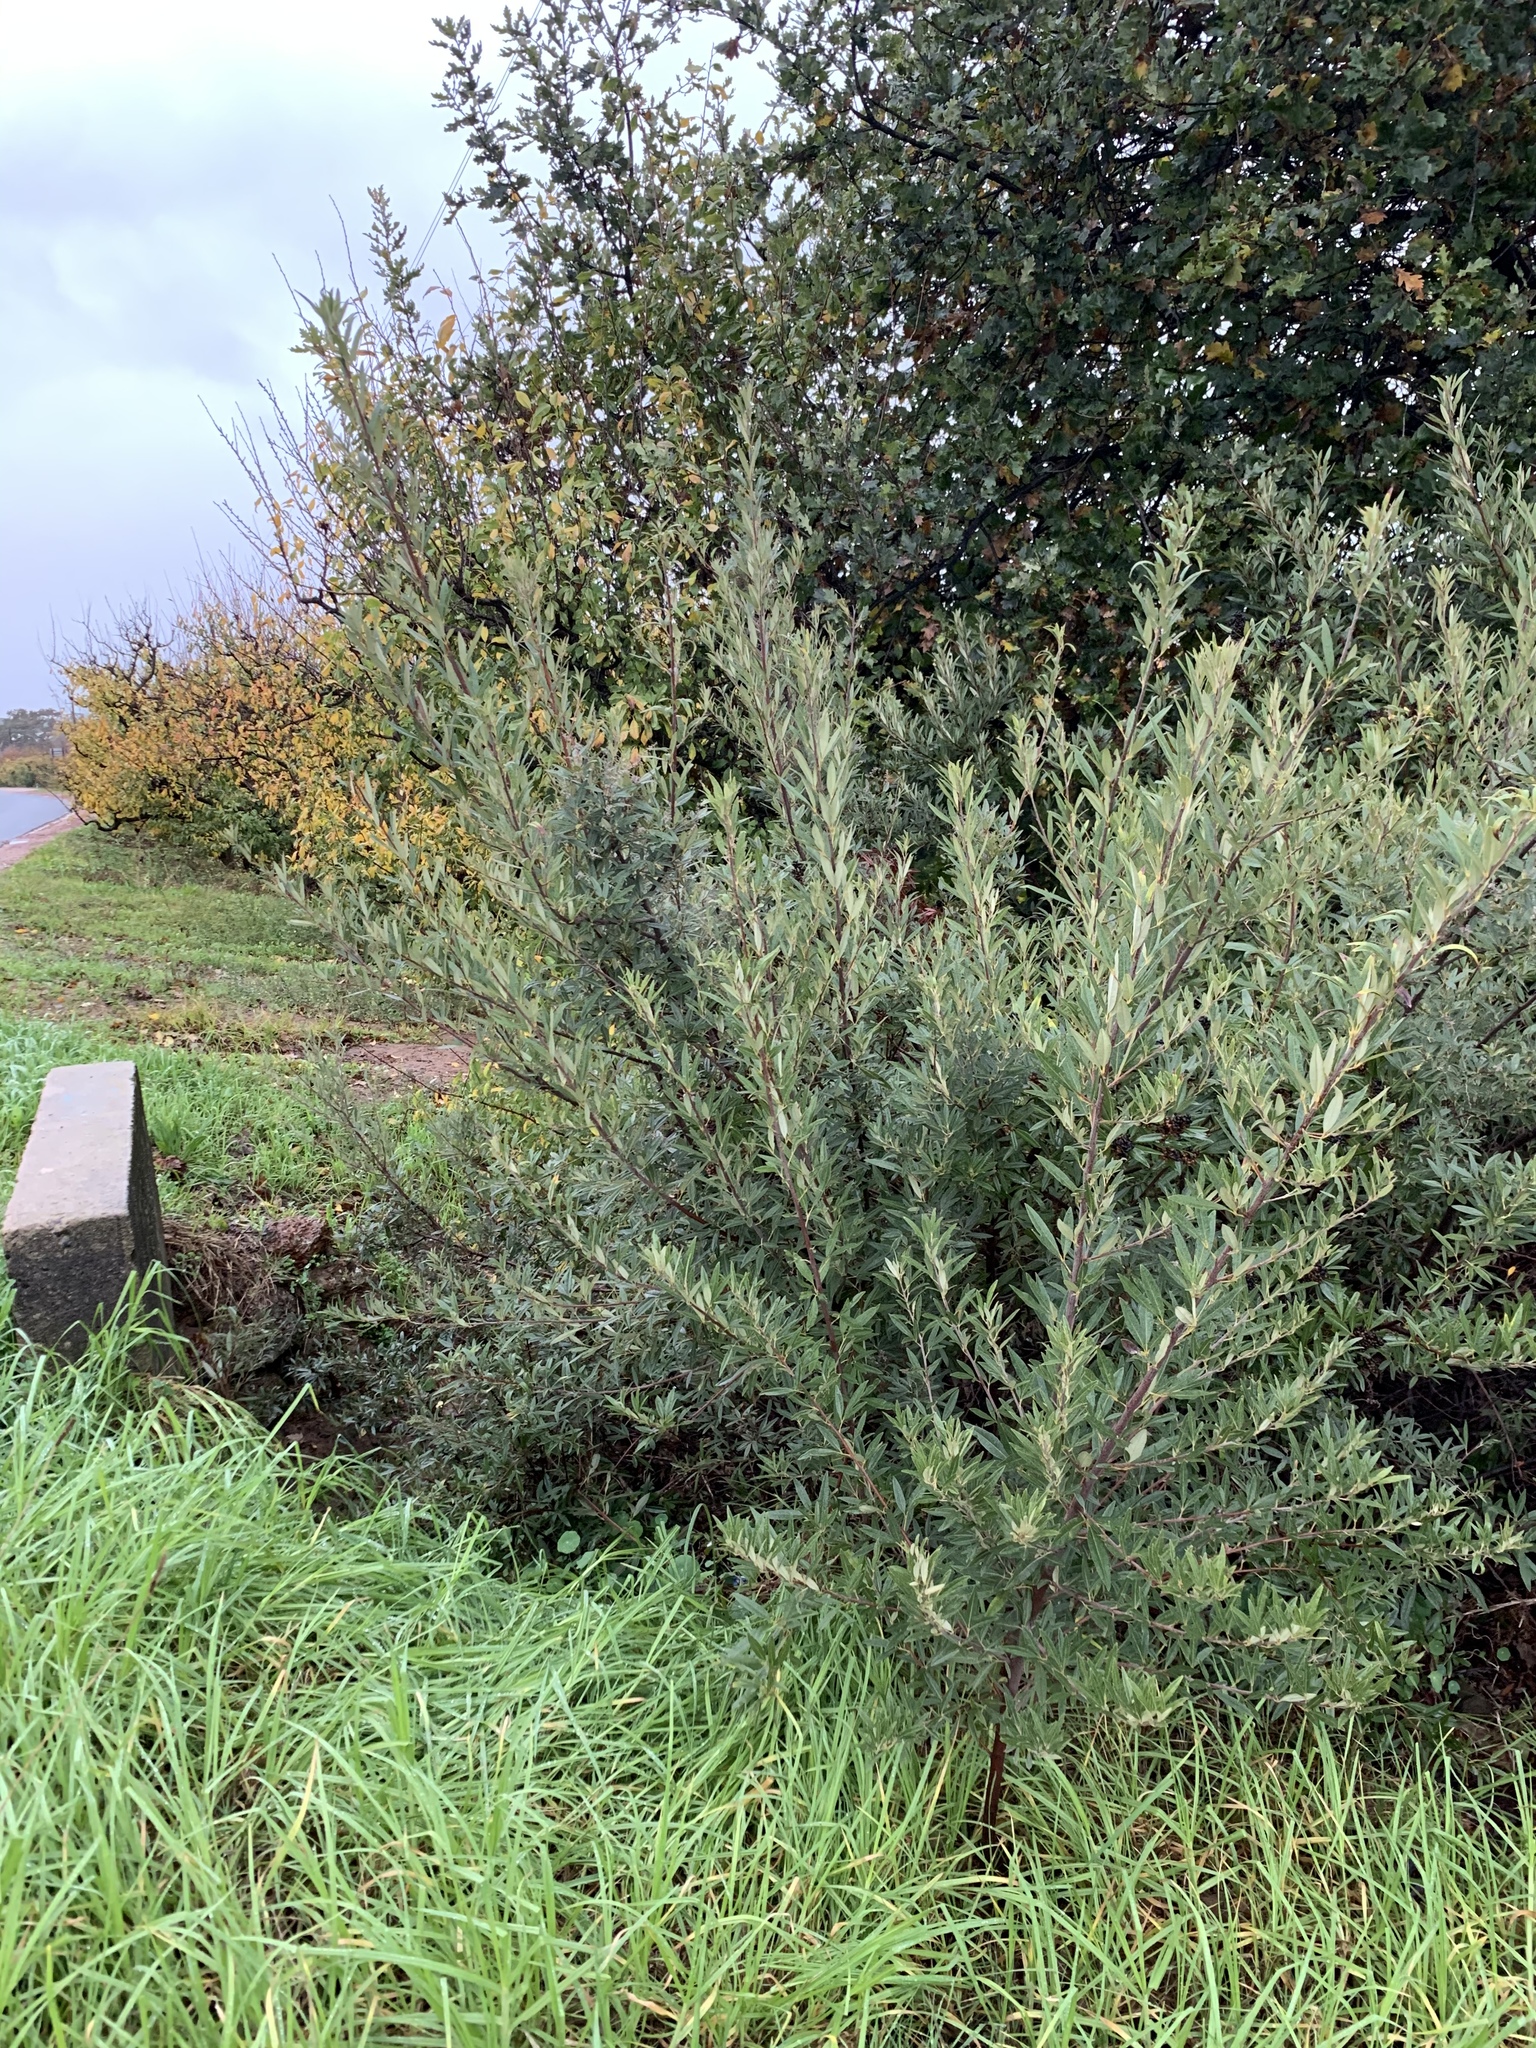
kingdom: Plantae
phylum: Tracheophyta
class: Magnoliopsida
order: Sapindales
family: Anacardiaceae
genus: Searsia
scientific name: Searsia angustifolia
